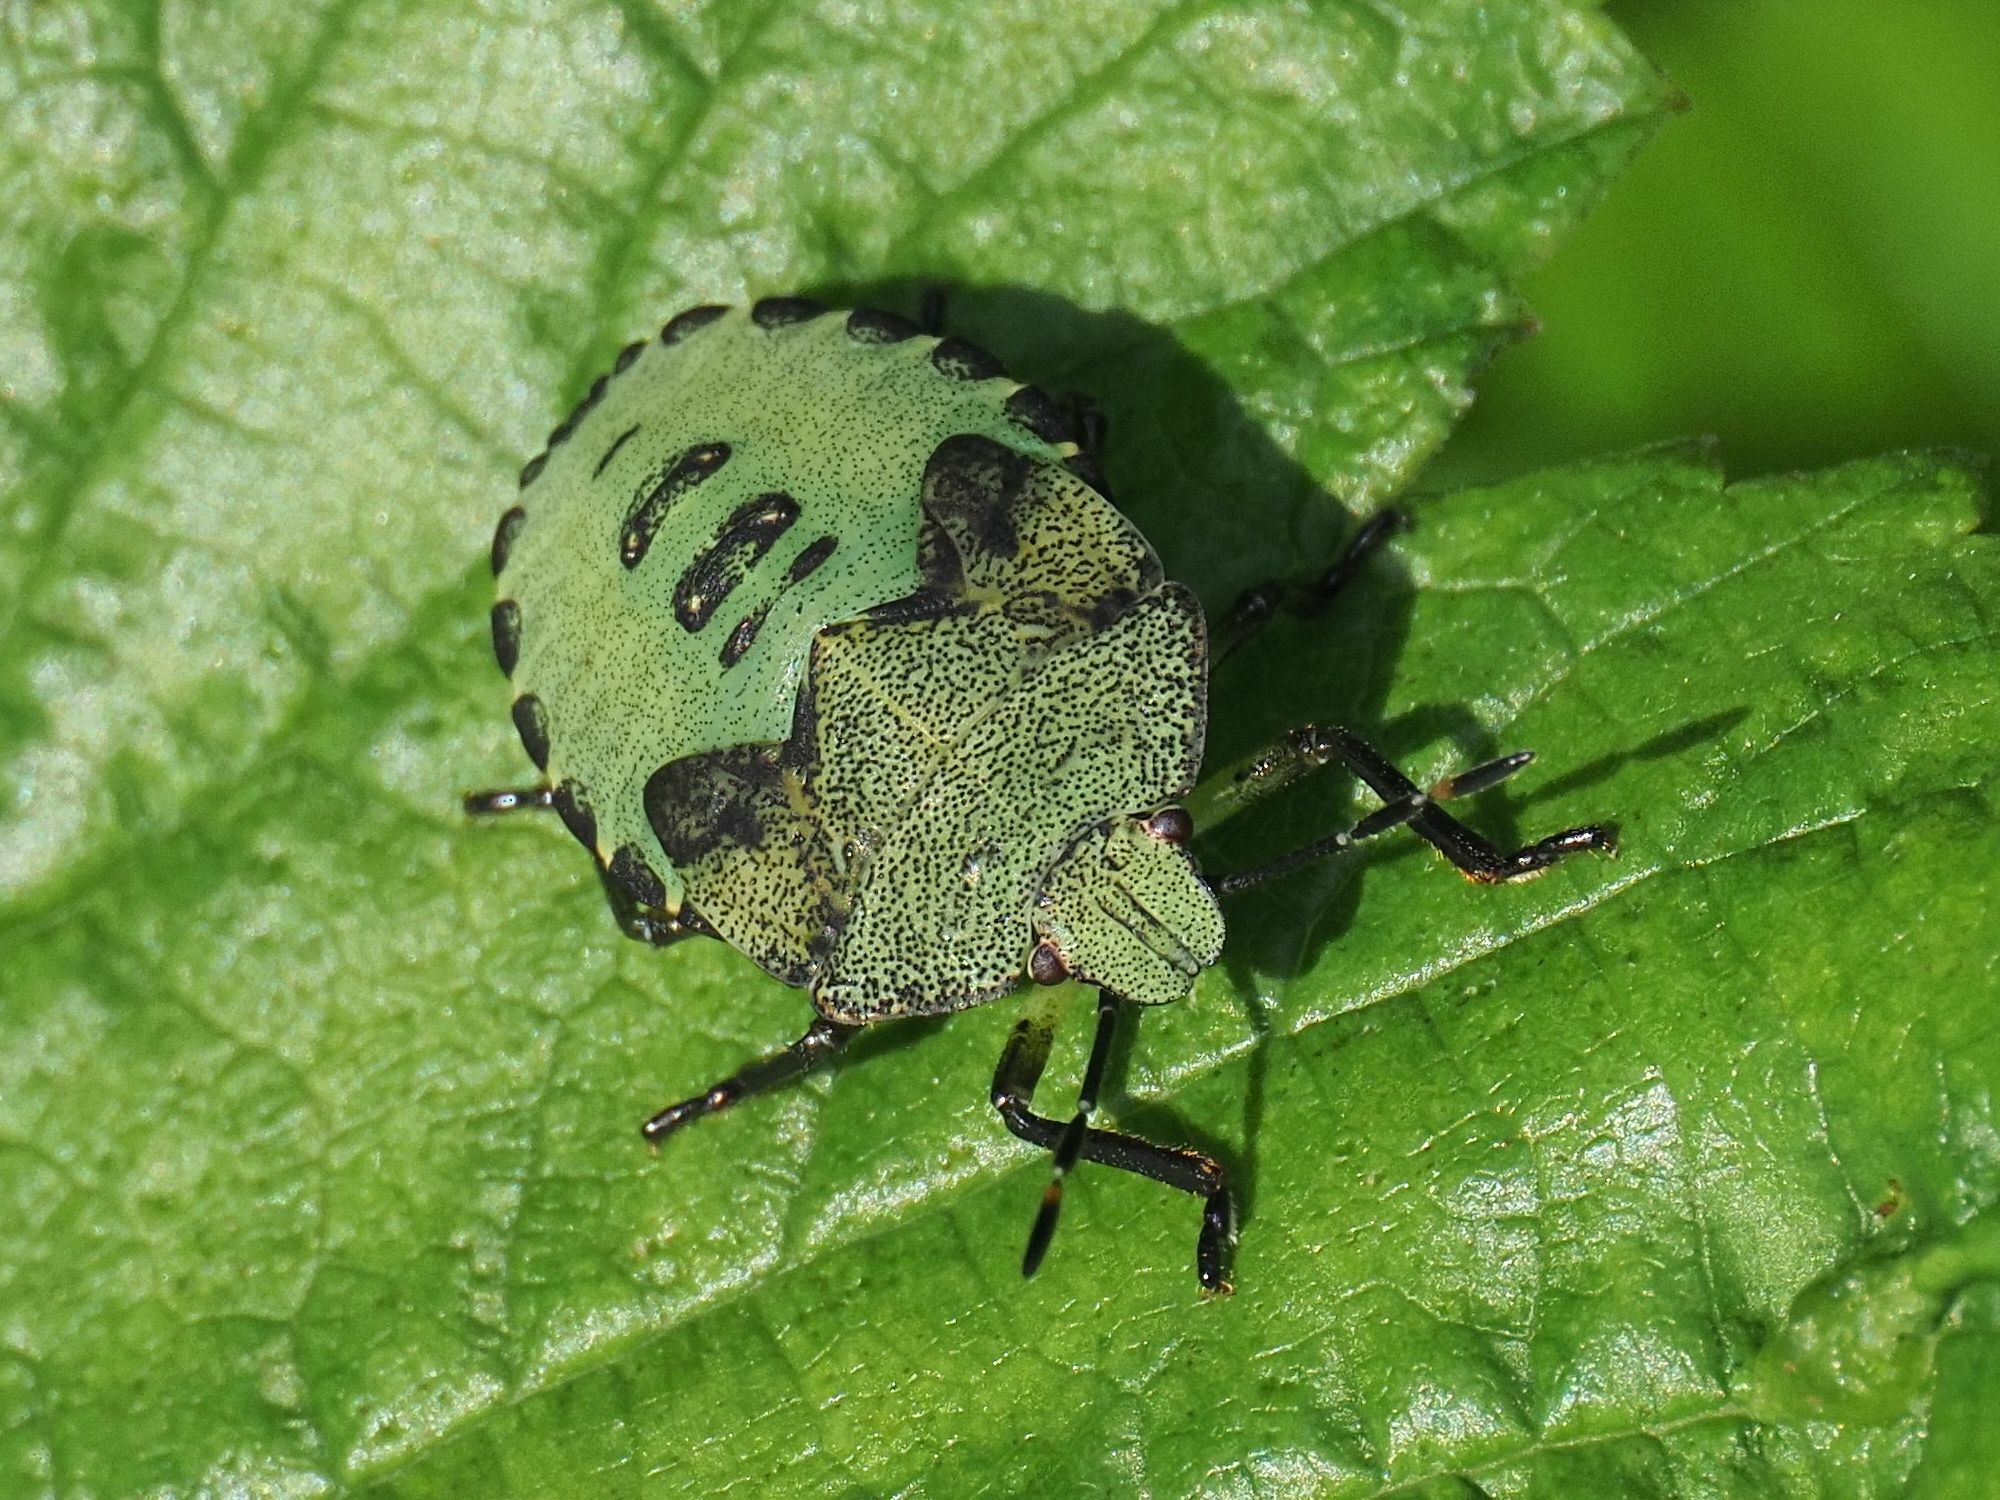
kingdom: Animalia
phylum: Arthropoda
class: Insecta
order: Hemiptera
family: Pentatomidae
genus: Palomena
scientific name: Palomena prasina
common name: Green shieldbug
